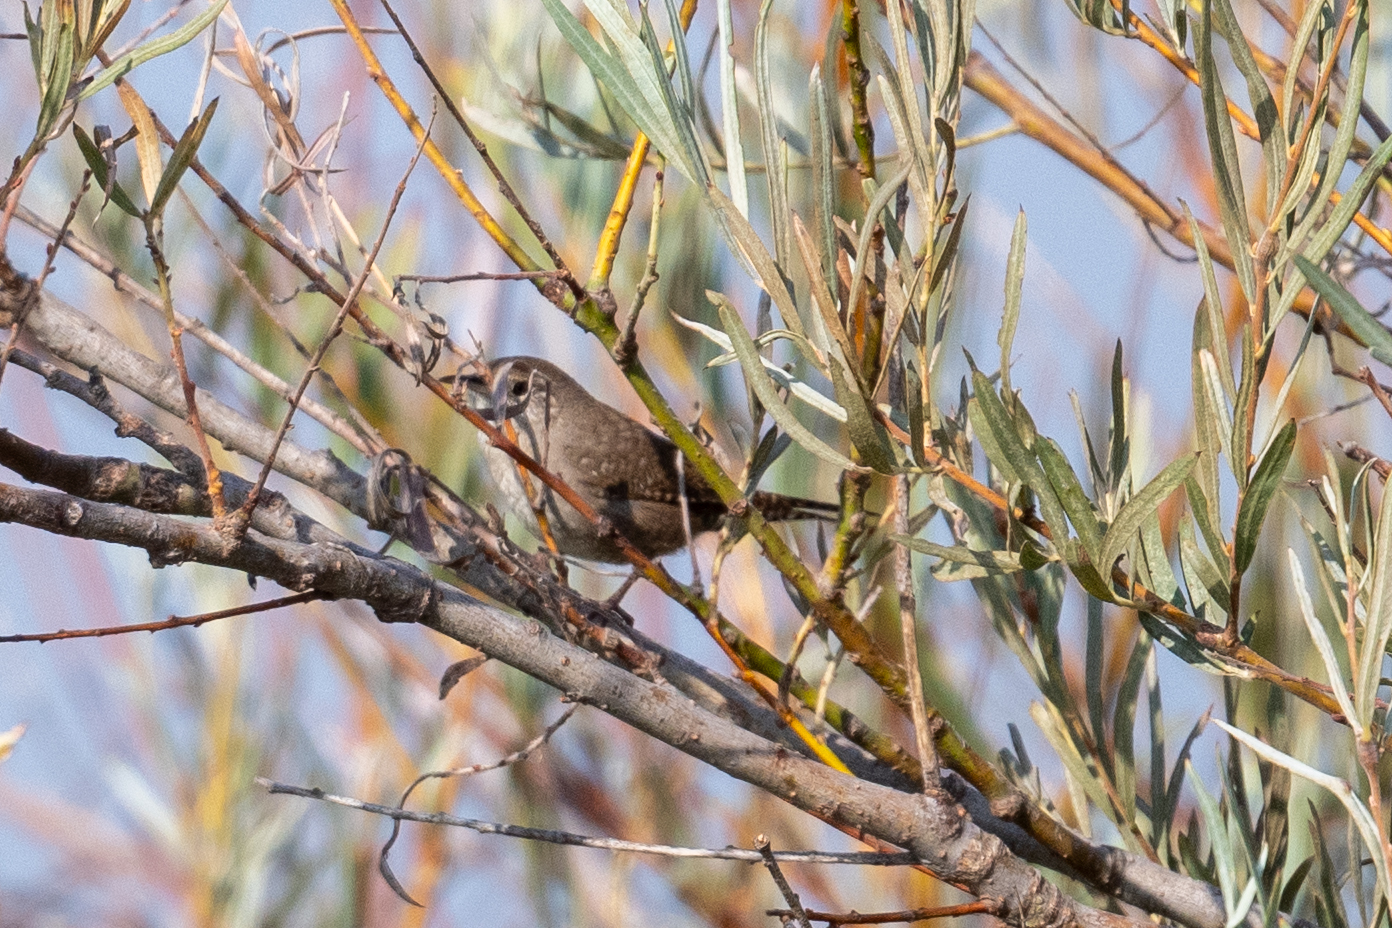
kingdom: Animalia
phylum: Chordata
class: Aves
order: Passeriformes
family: Troglodytidae
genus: Troglodytes
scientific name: Troglodytes aedon
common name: House wren
